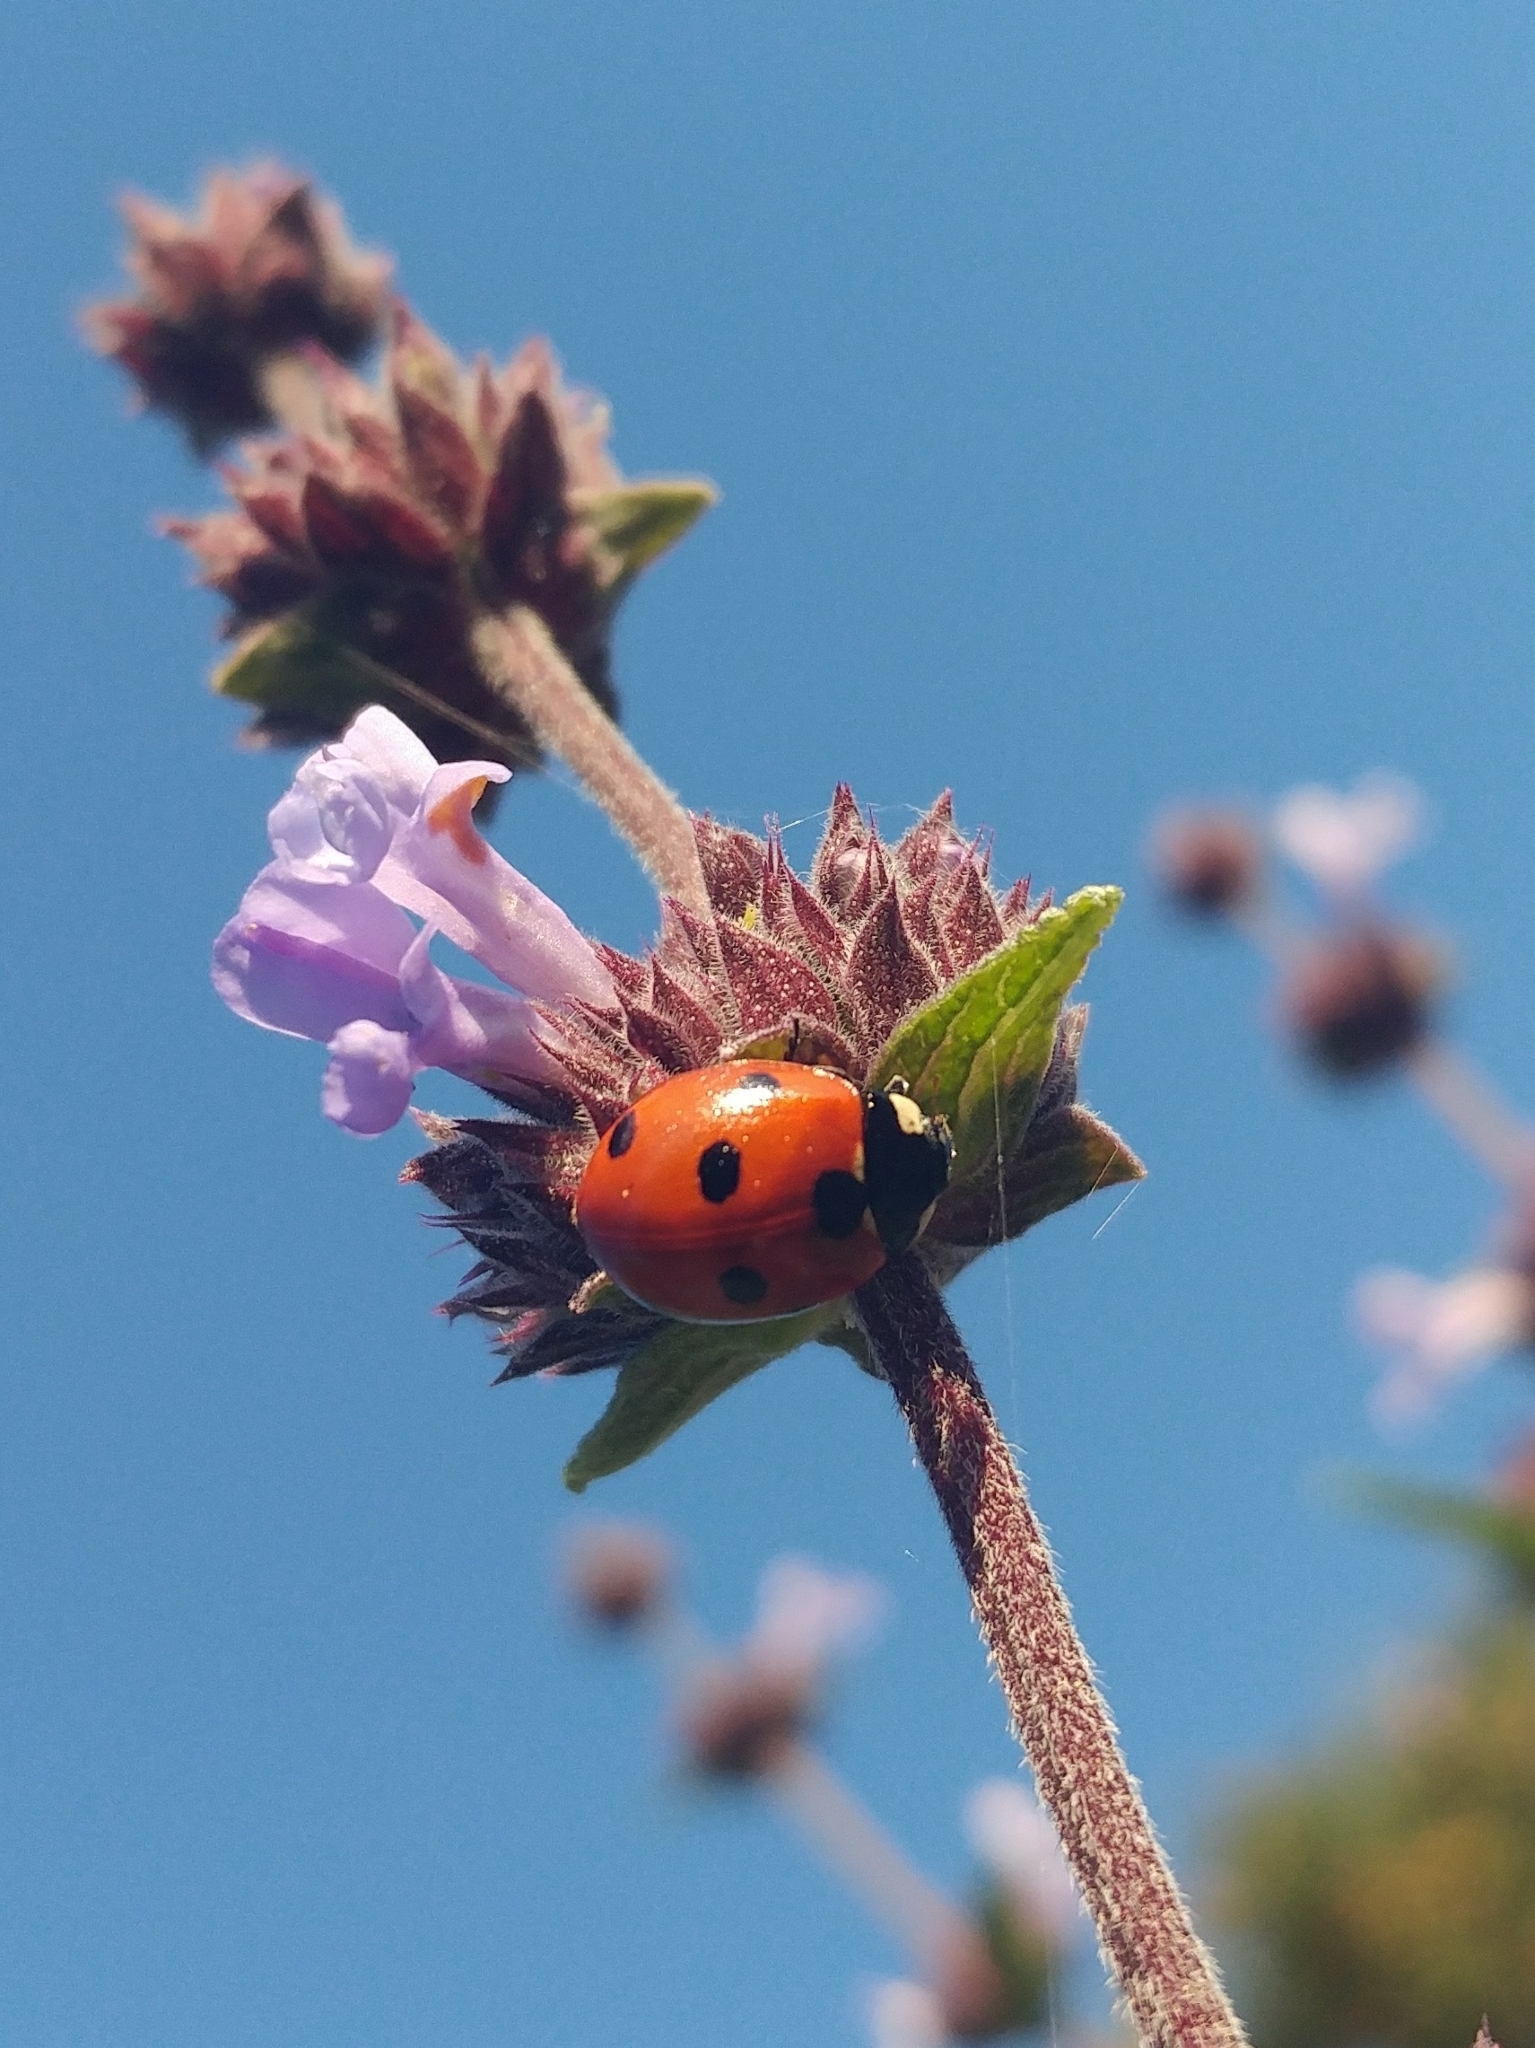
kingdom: Animalia
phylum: Arthropoda
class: Insecta
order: Coleoptera
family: Coccinellidae
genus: Coccinella
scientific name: Coccinella septempunctata
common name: Sevenspotted lady beetle
